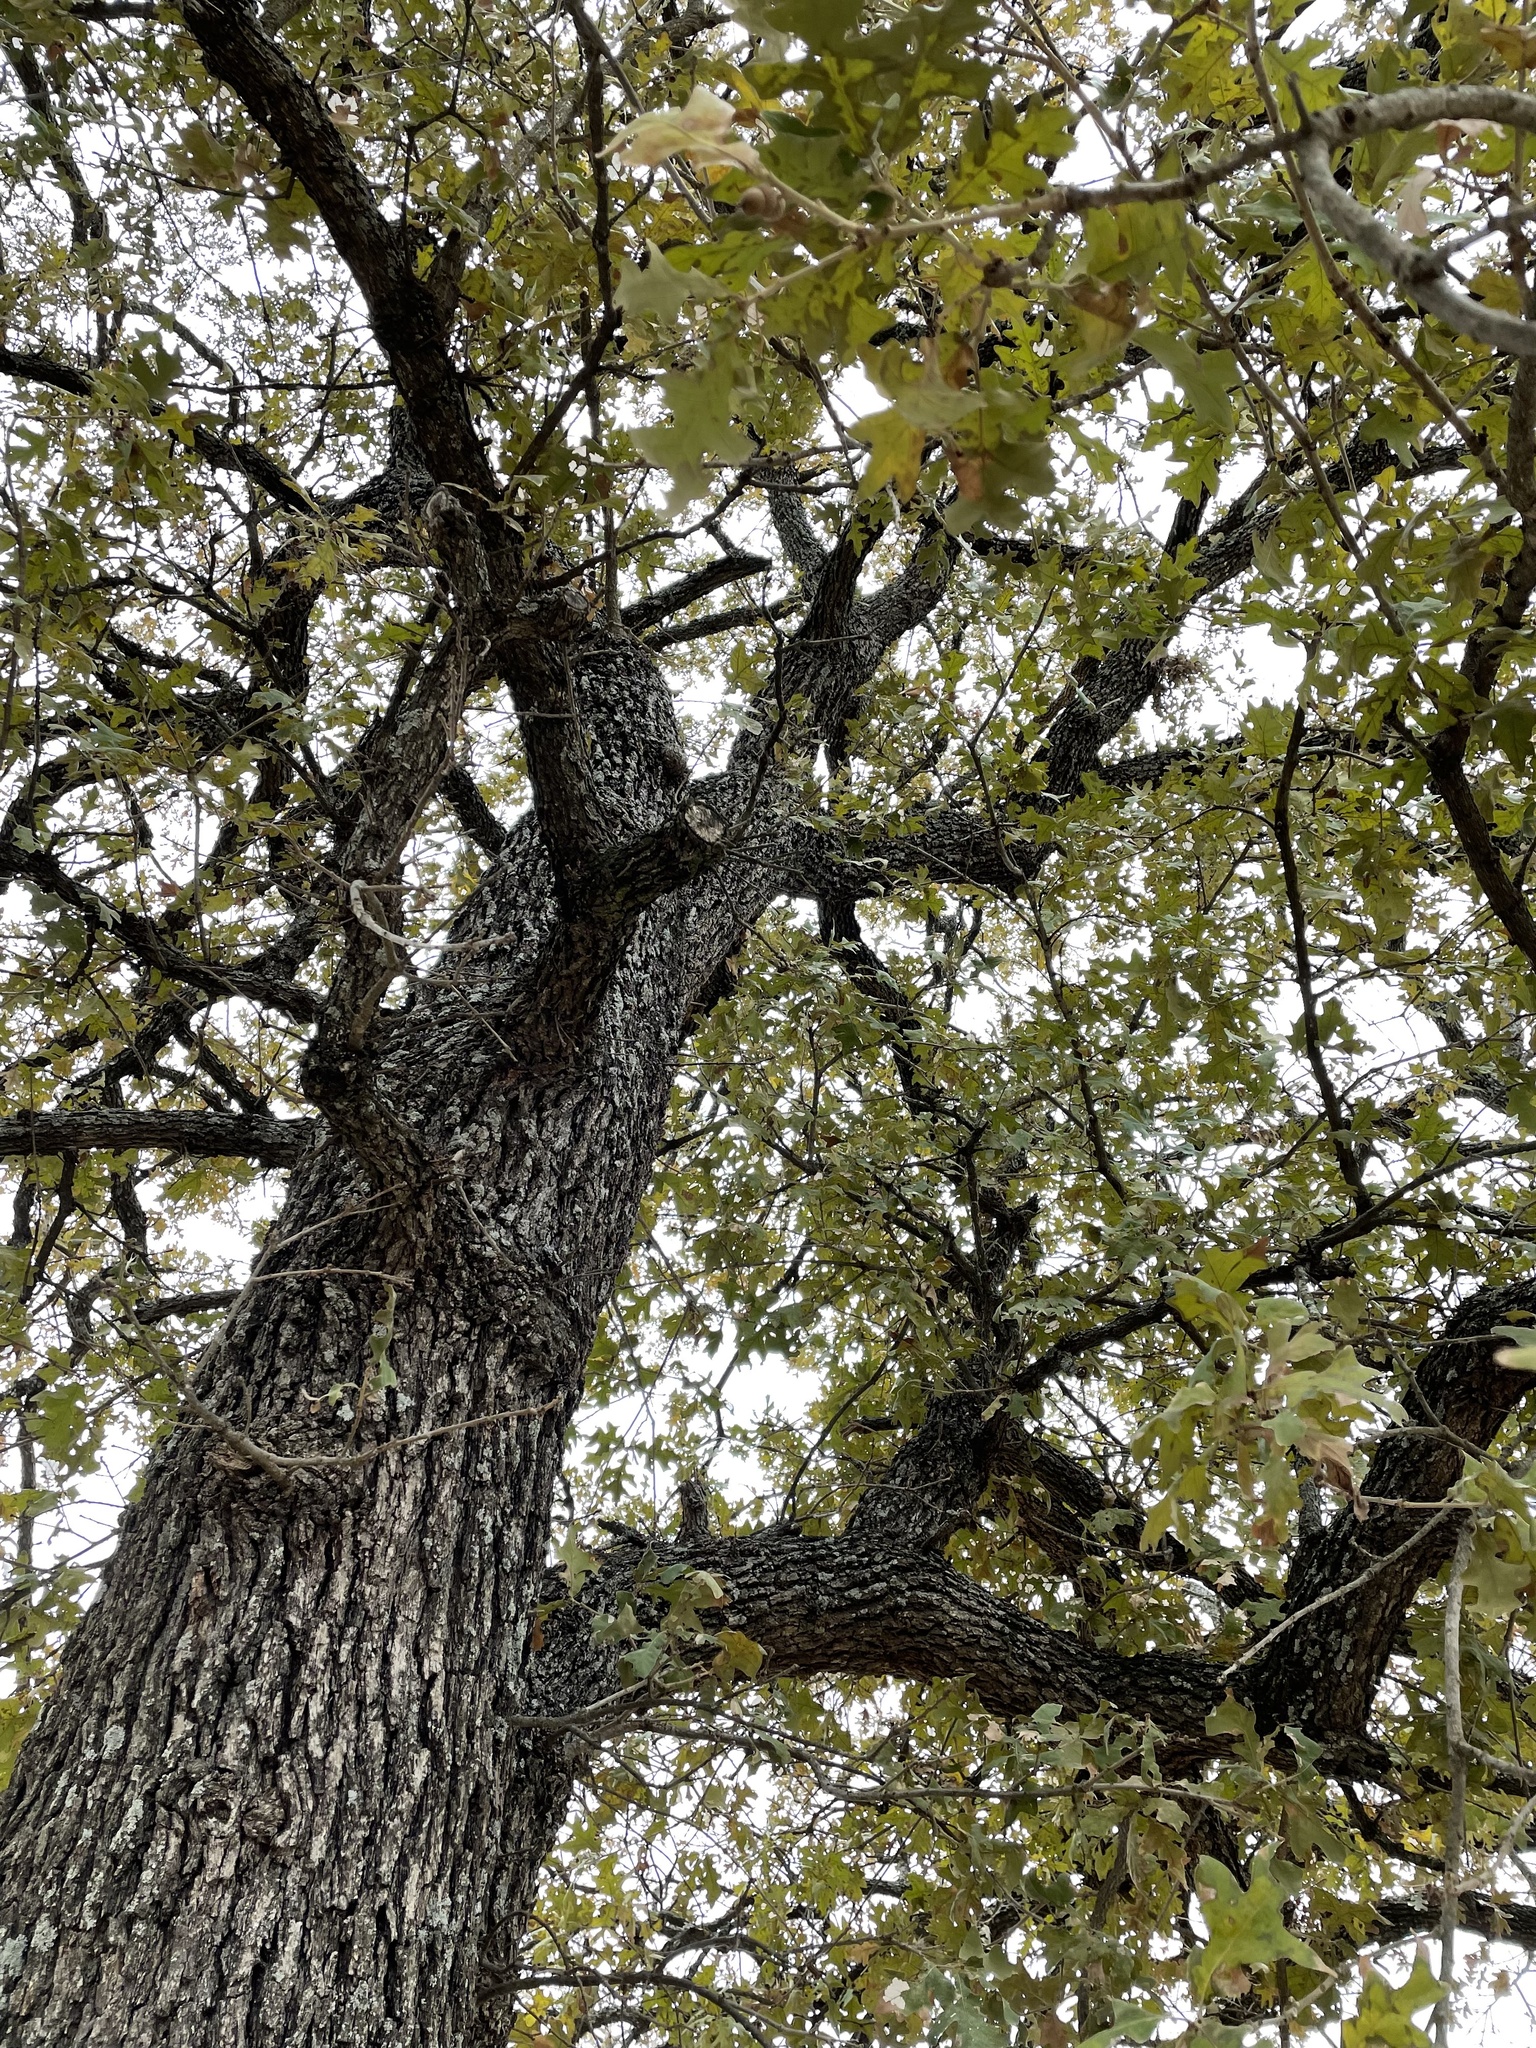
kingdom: Plantae
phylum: Tracheophyta
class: Magnoliopsida
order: Fagales
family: Fagaceae
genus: Quercus
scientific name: Quercus stellata
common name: Post oak
